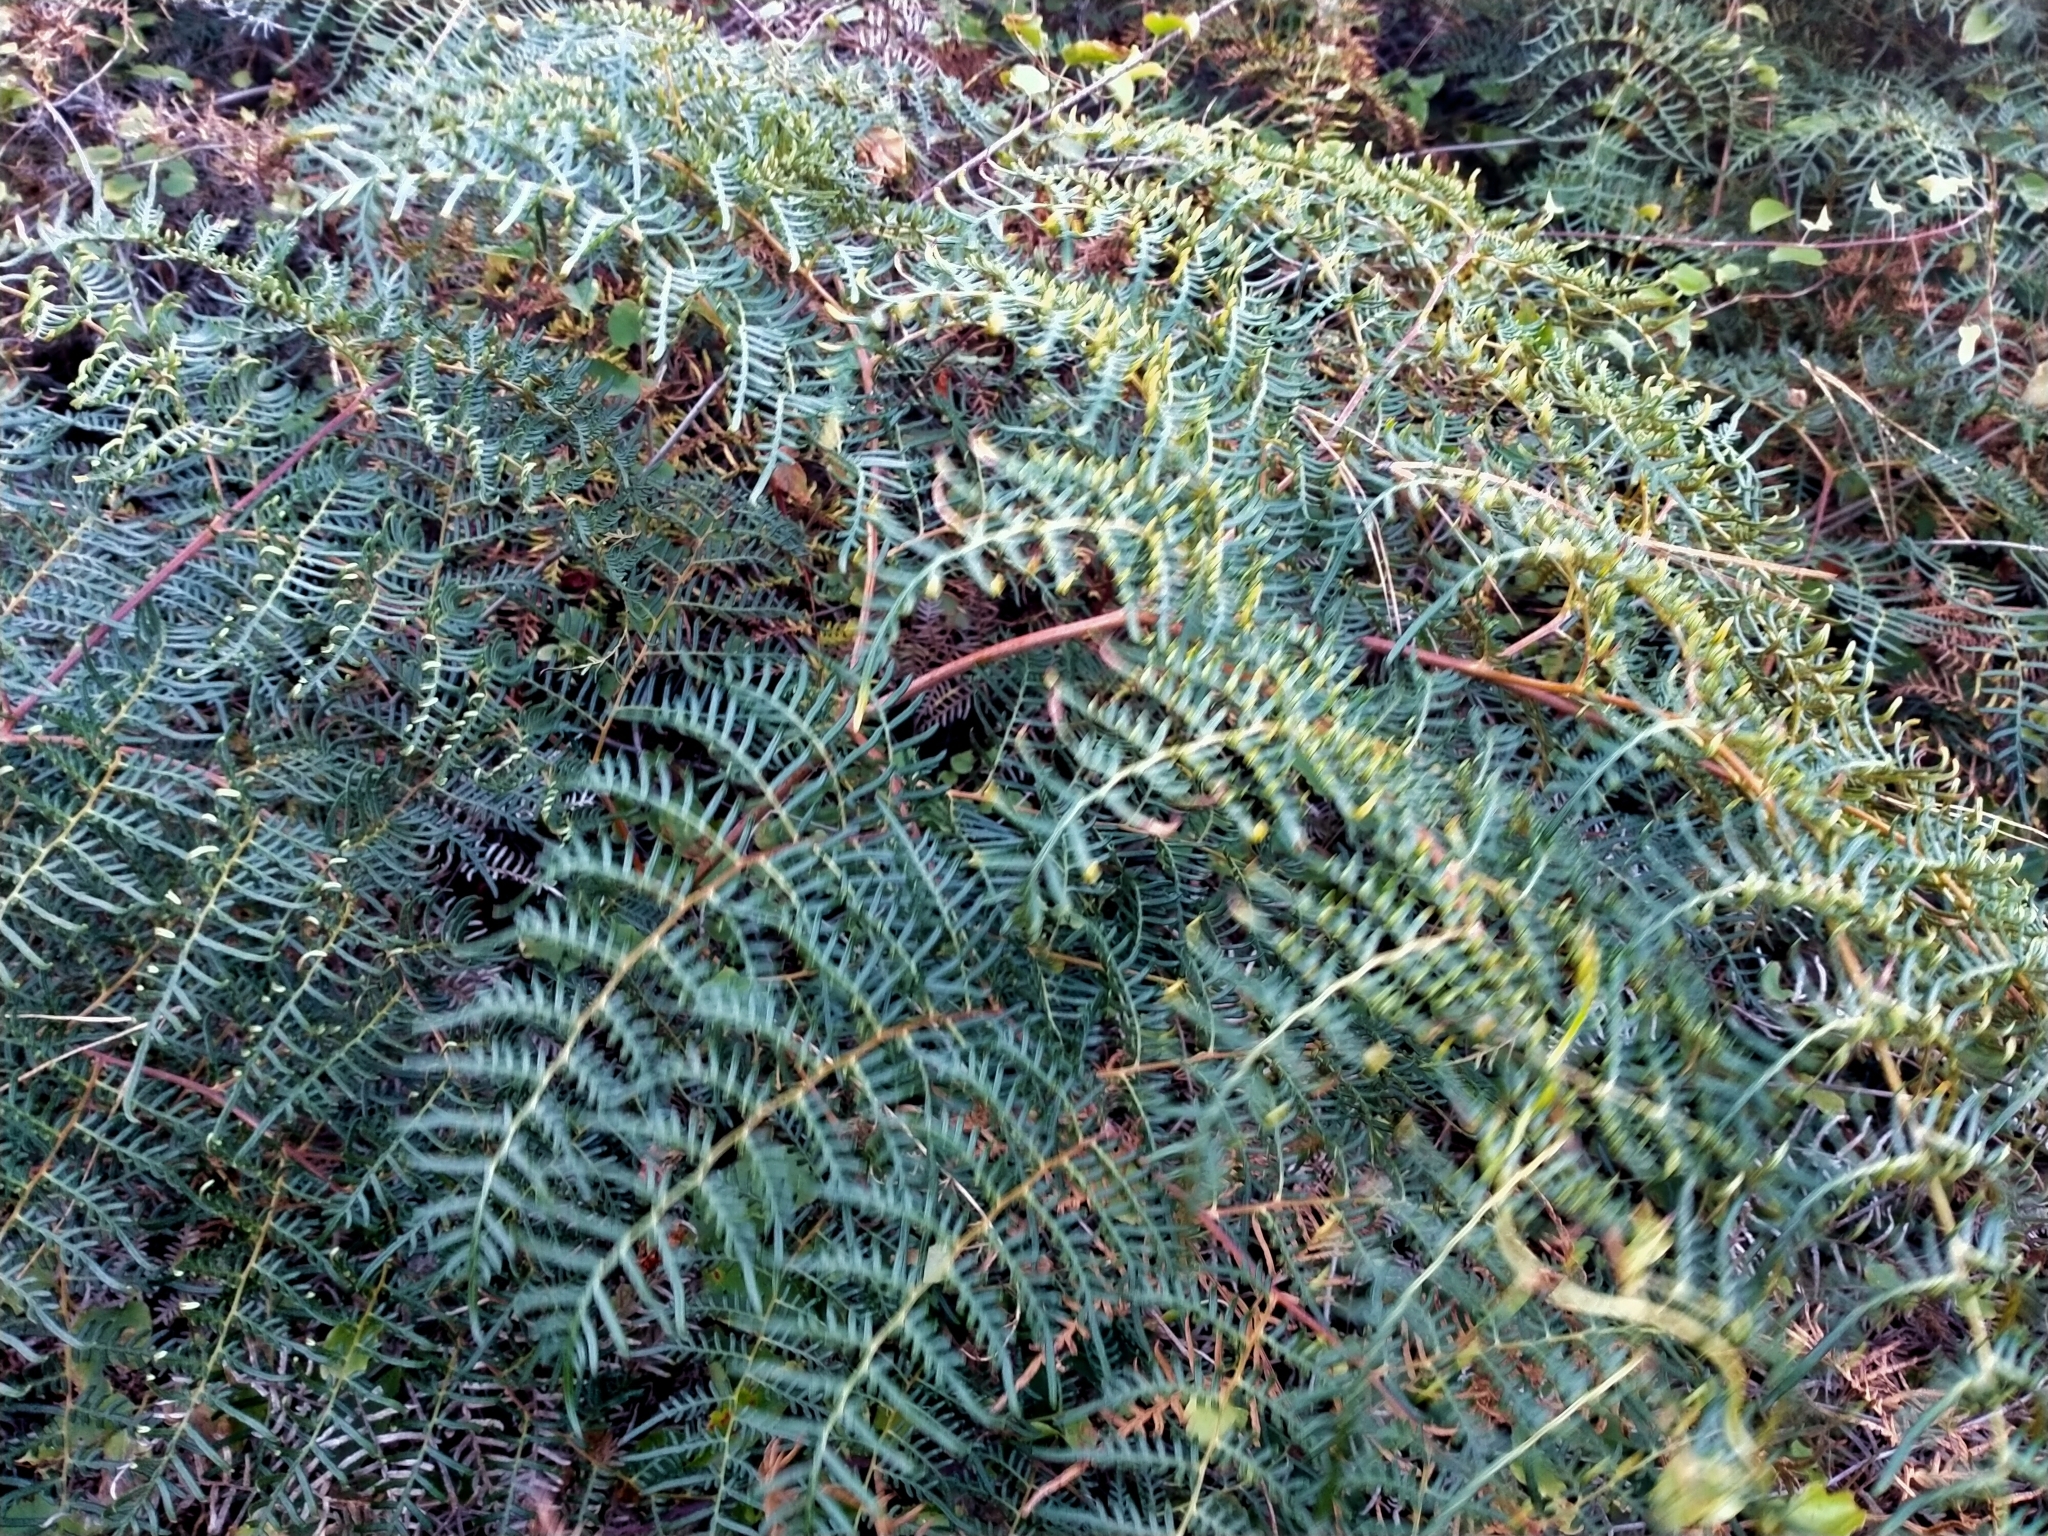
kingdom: Plantae
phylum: Tracheophyta
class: Polypodiopsida
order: Polypodiales
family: Dennstaedtiaceae
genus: Pteridium
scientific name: Pteridium esculentum
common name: Bracken fern
